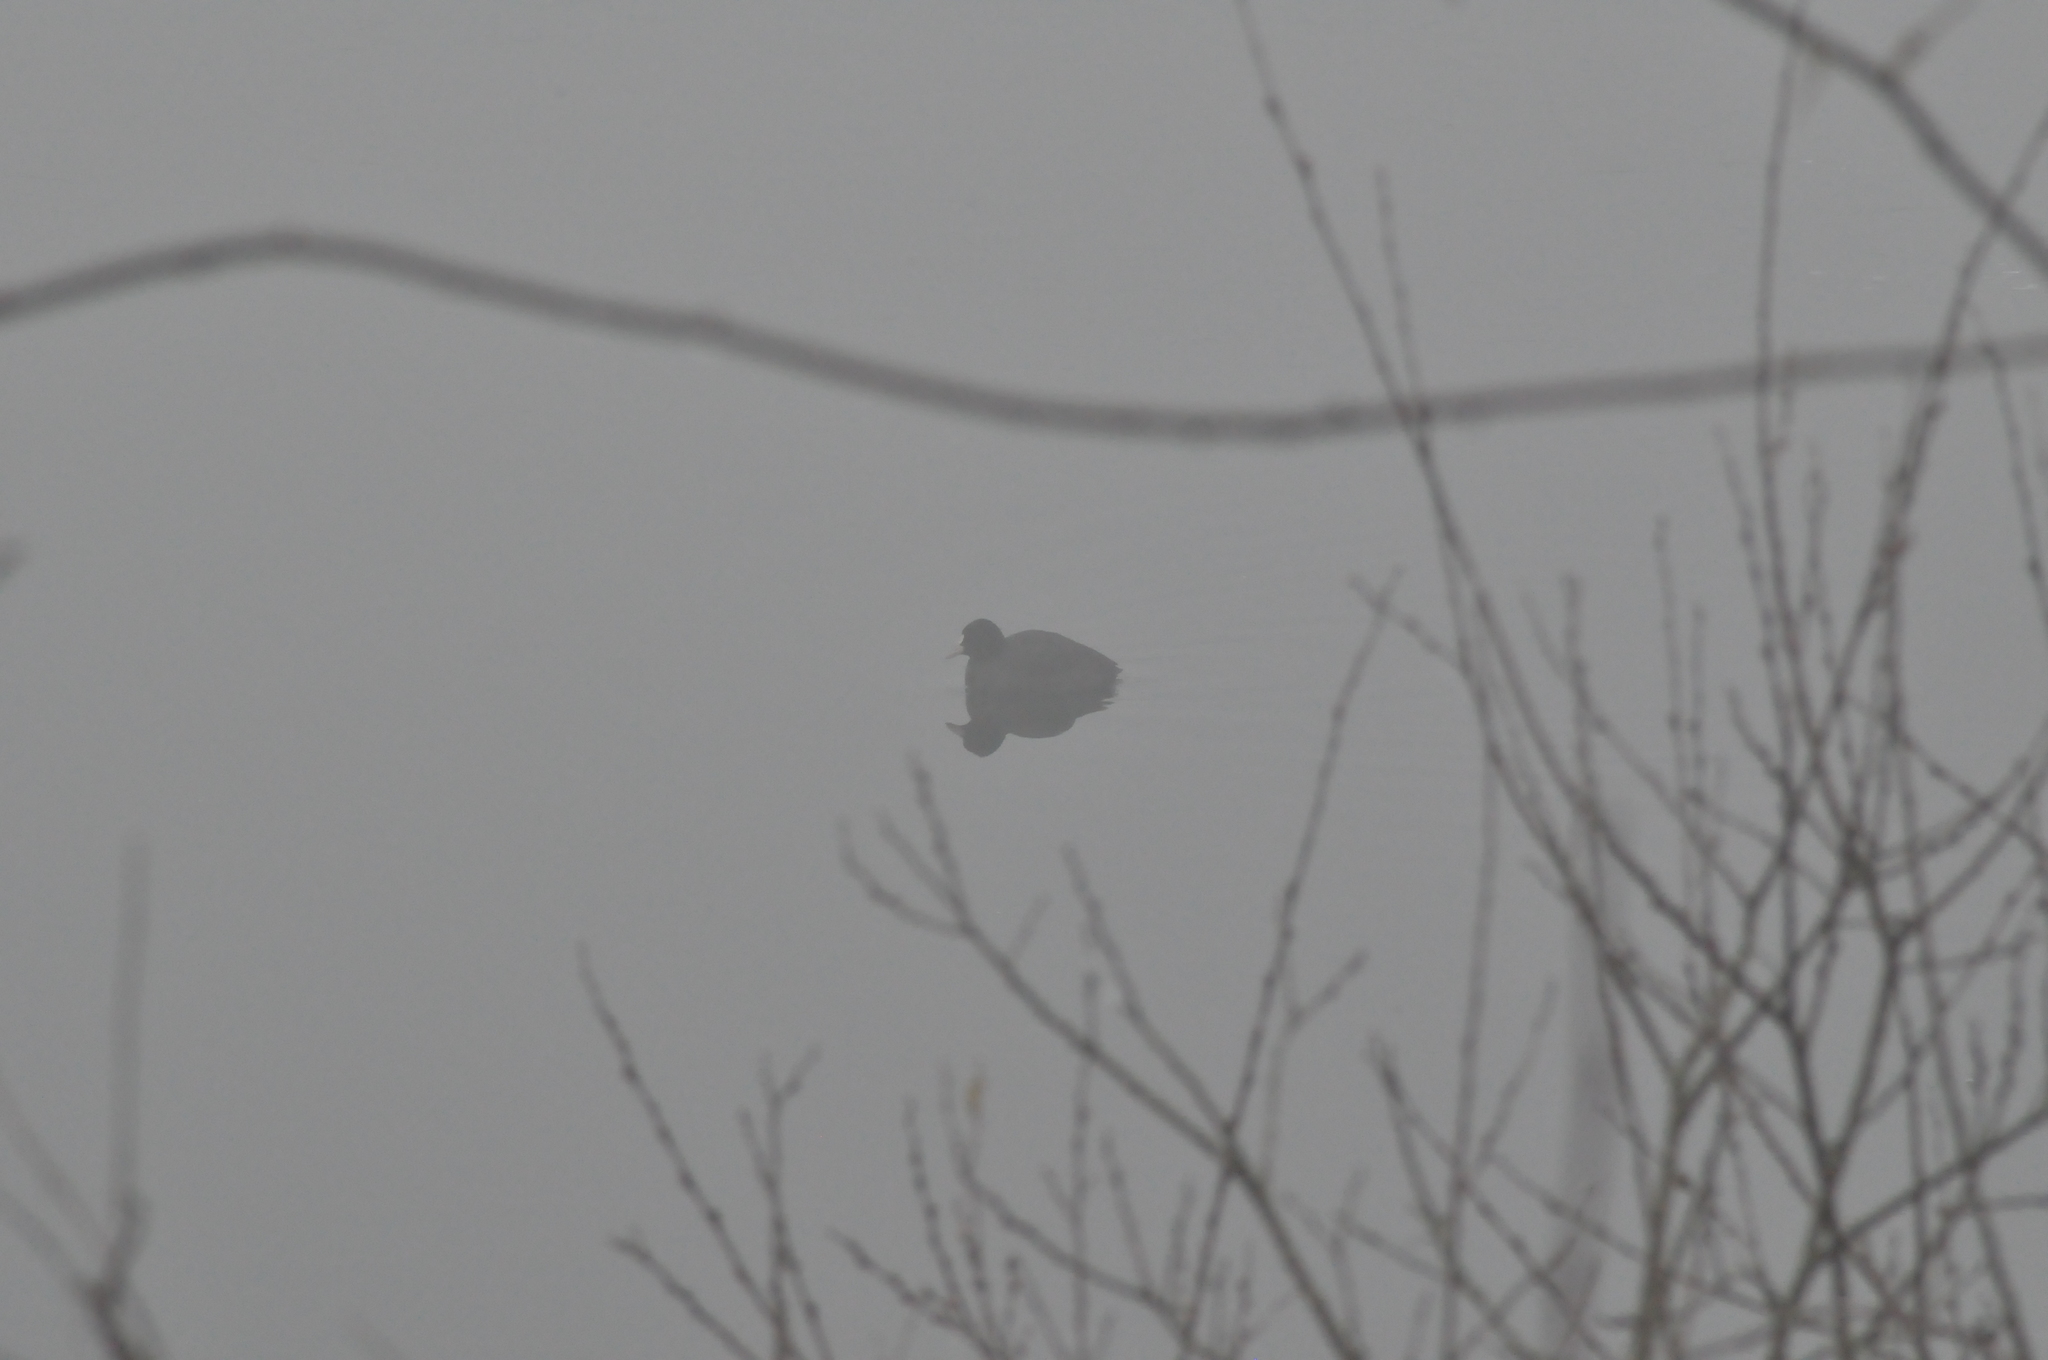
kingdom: Animalia
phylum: Chordata
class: Aves
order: Gruiformes
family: Rallidae
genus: Fulica
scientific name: Fulica atra
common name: Eurasian coot
